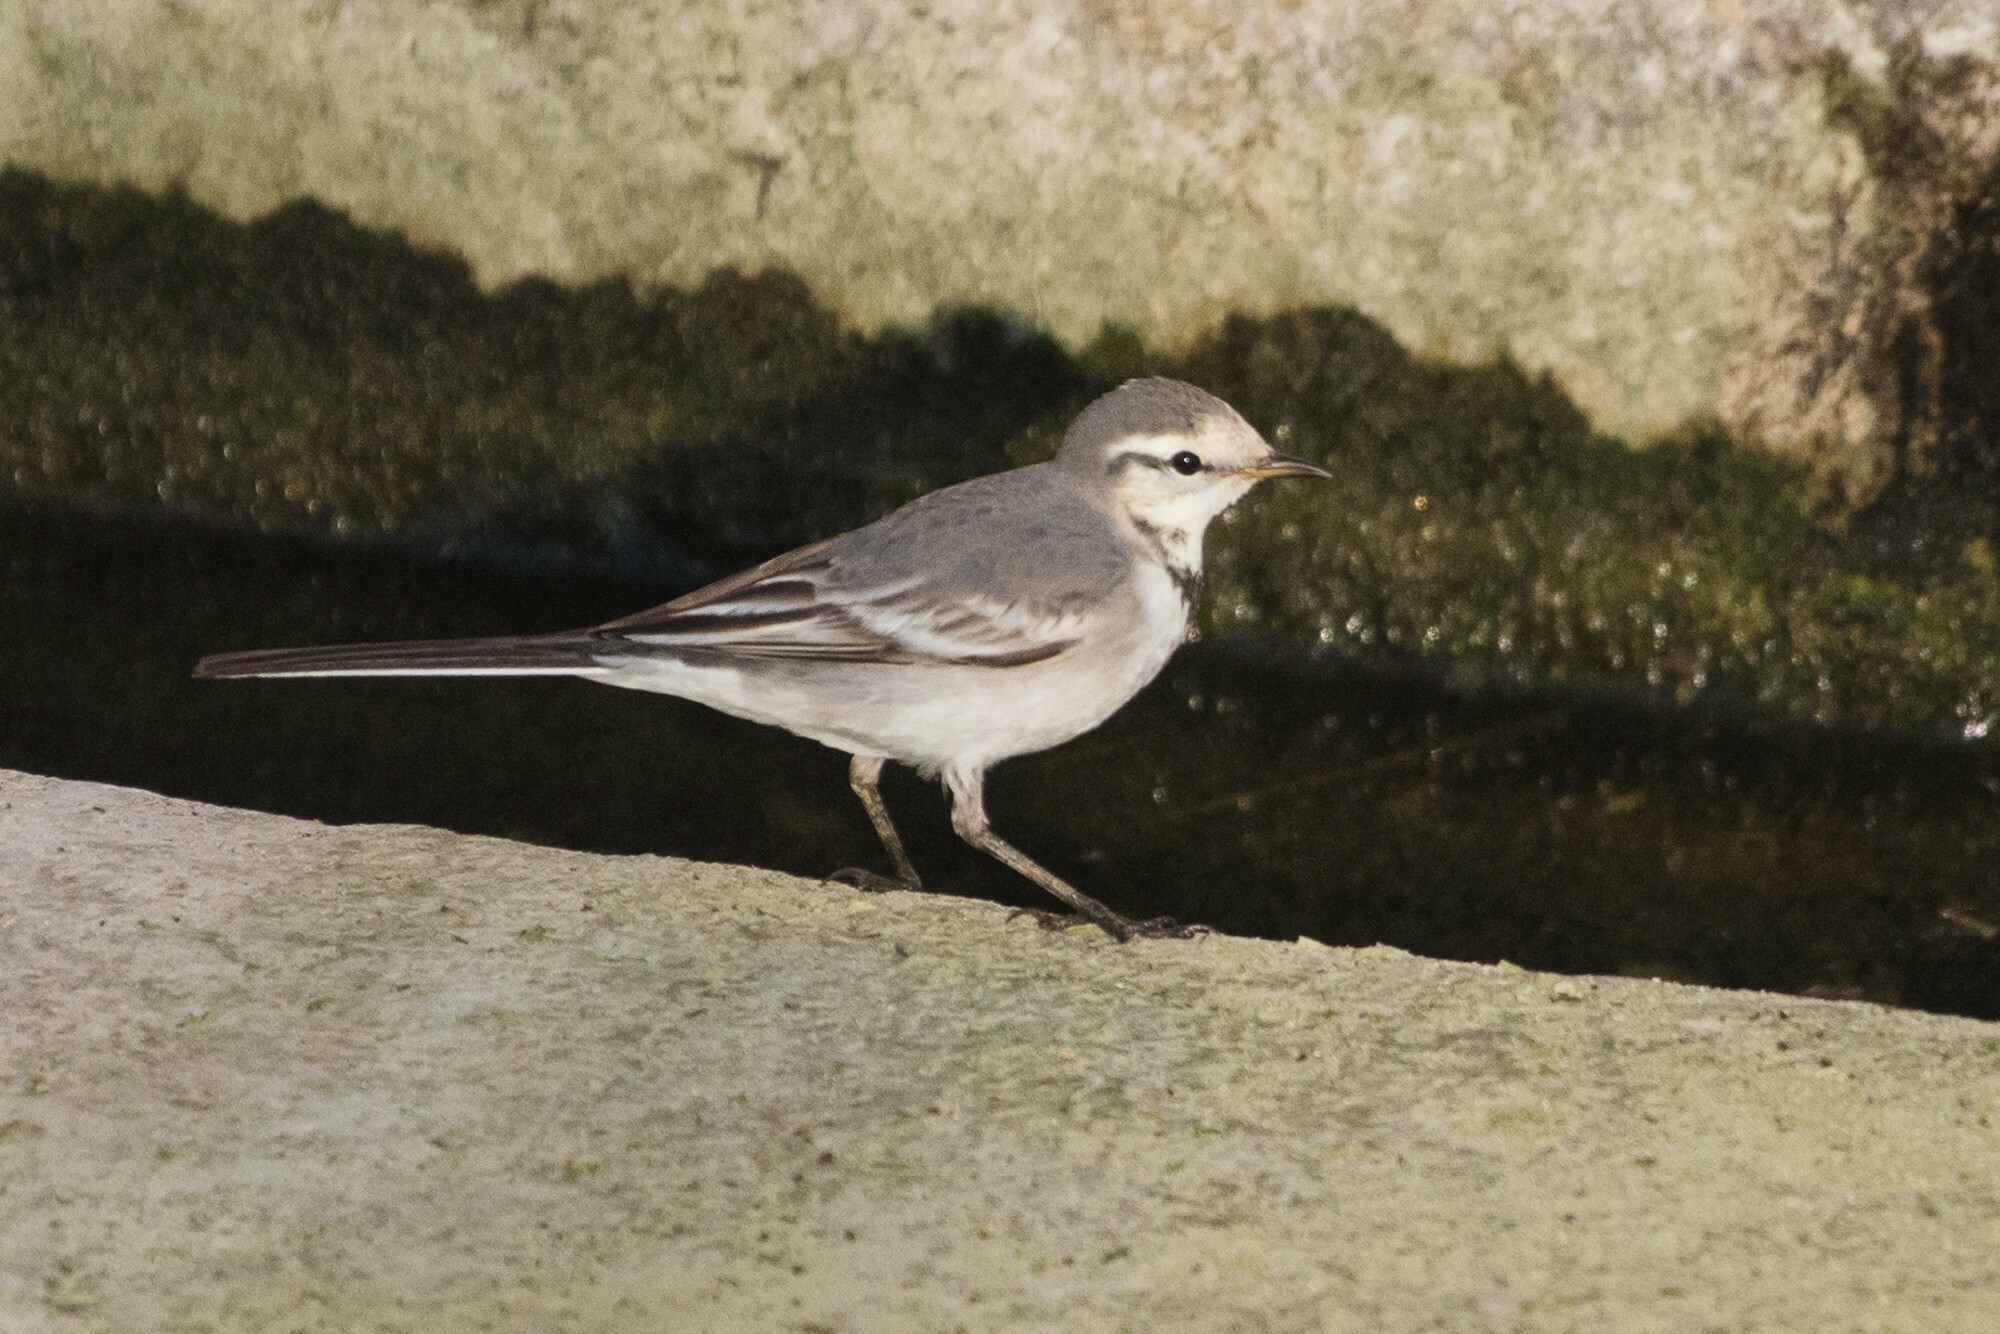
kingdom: Animalia
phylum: Chordata
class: Aves
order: Passeriformes
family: Motacillidae
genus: Motacilla
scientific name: Motacilla alba
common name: White wagtail
